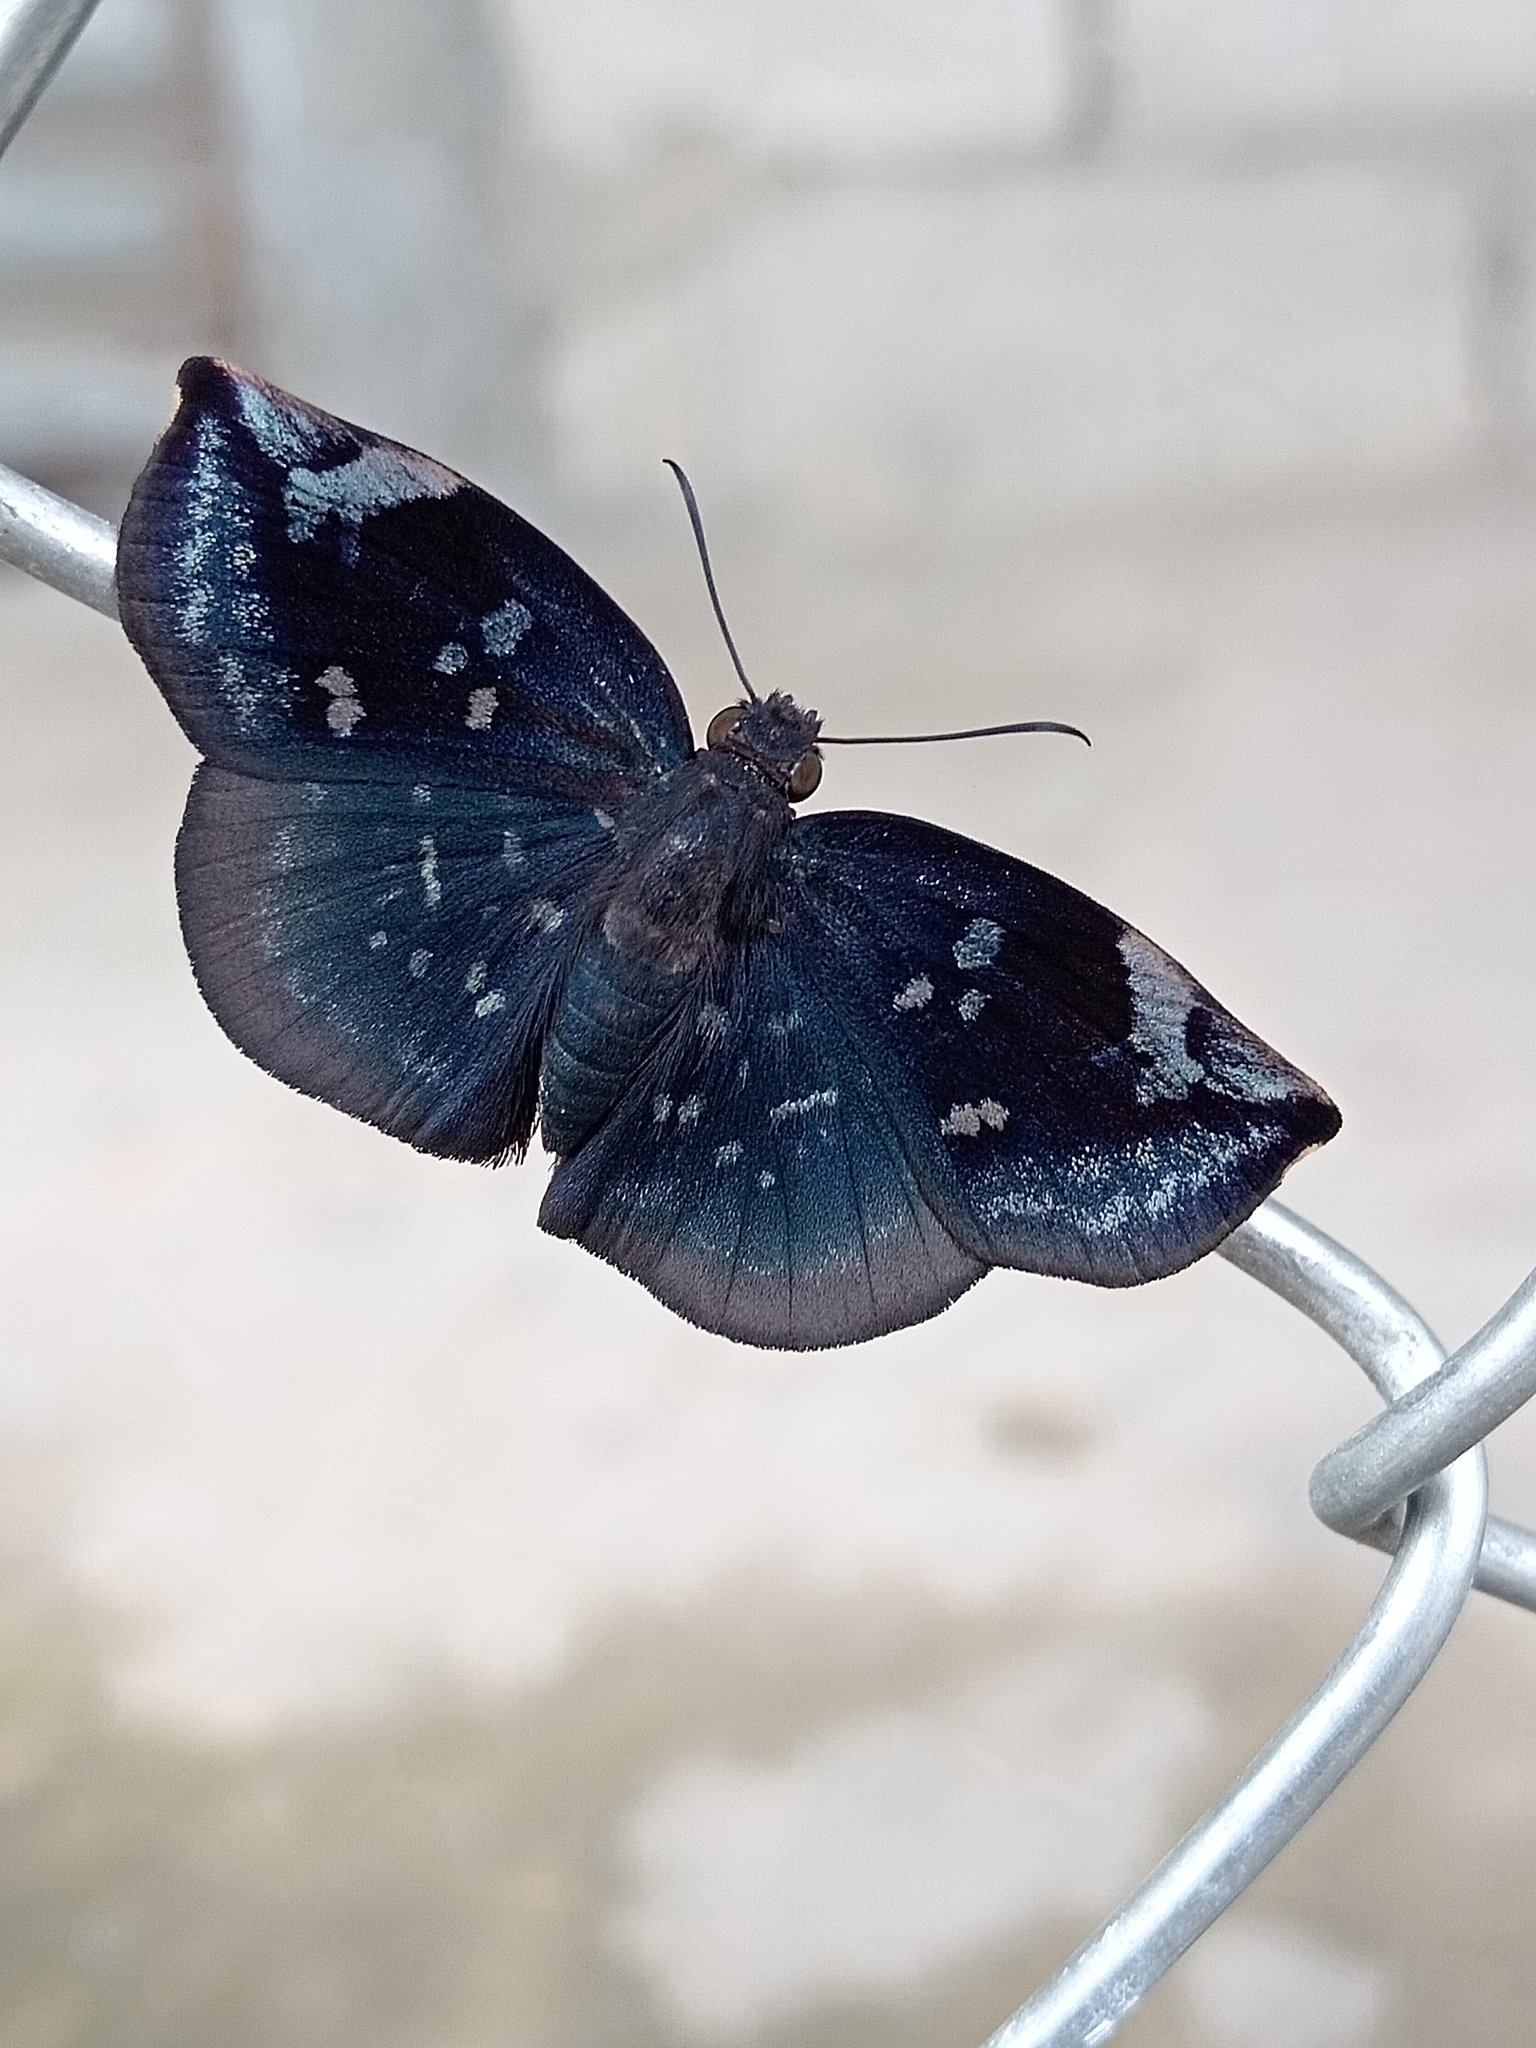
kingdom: Animalia
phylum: Arthropoda
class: Insecta
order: Lepidoptera
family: Hesperiidae
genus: Achlyodes
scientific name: Achlyodes thraso
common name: Sickle-winged skipper
